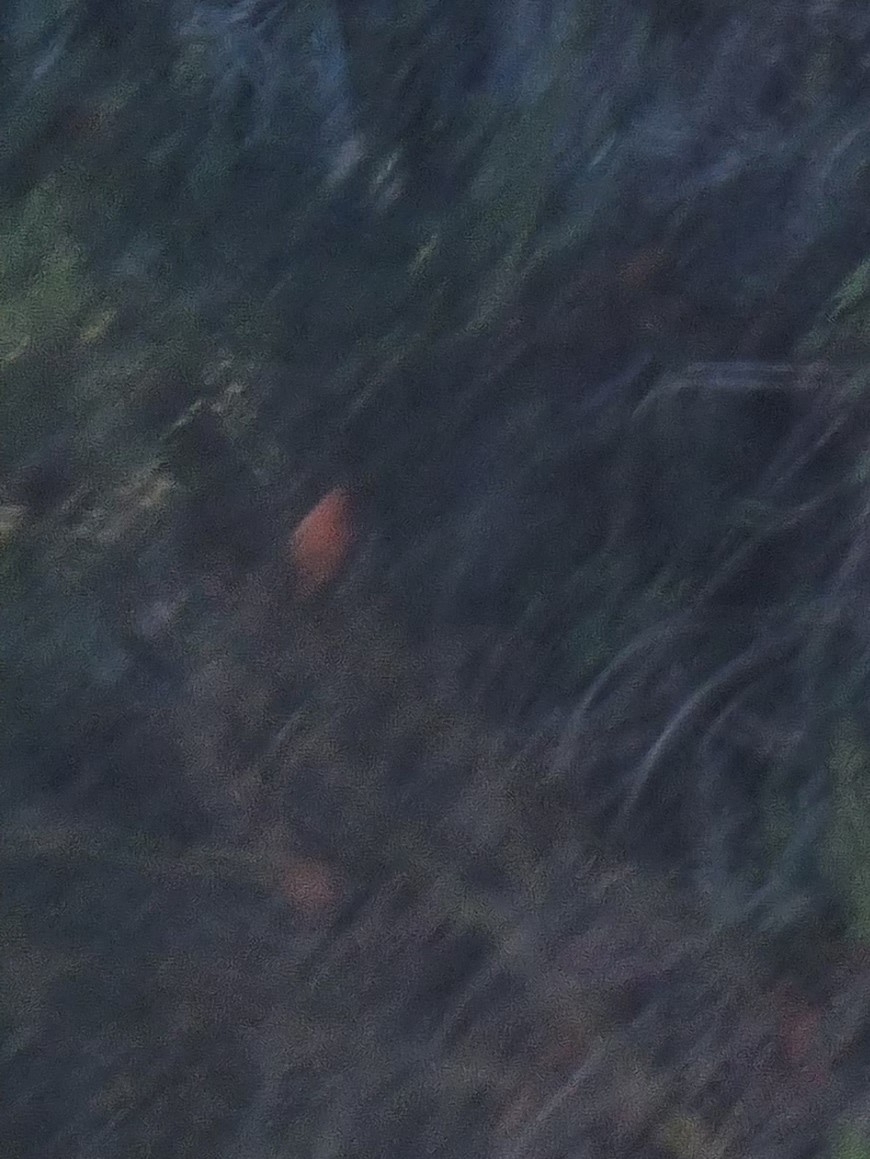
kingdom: Animalia
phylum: Arthropoda
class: Insecta
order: Lepidoptera
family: Nymphalidae
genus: Danaus
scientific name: Danaus plexippus
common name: Monarch
